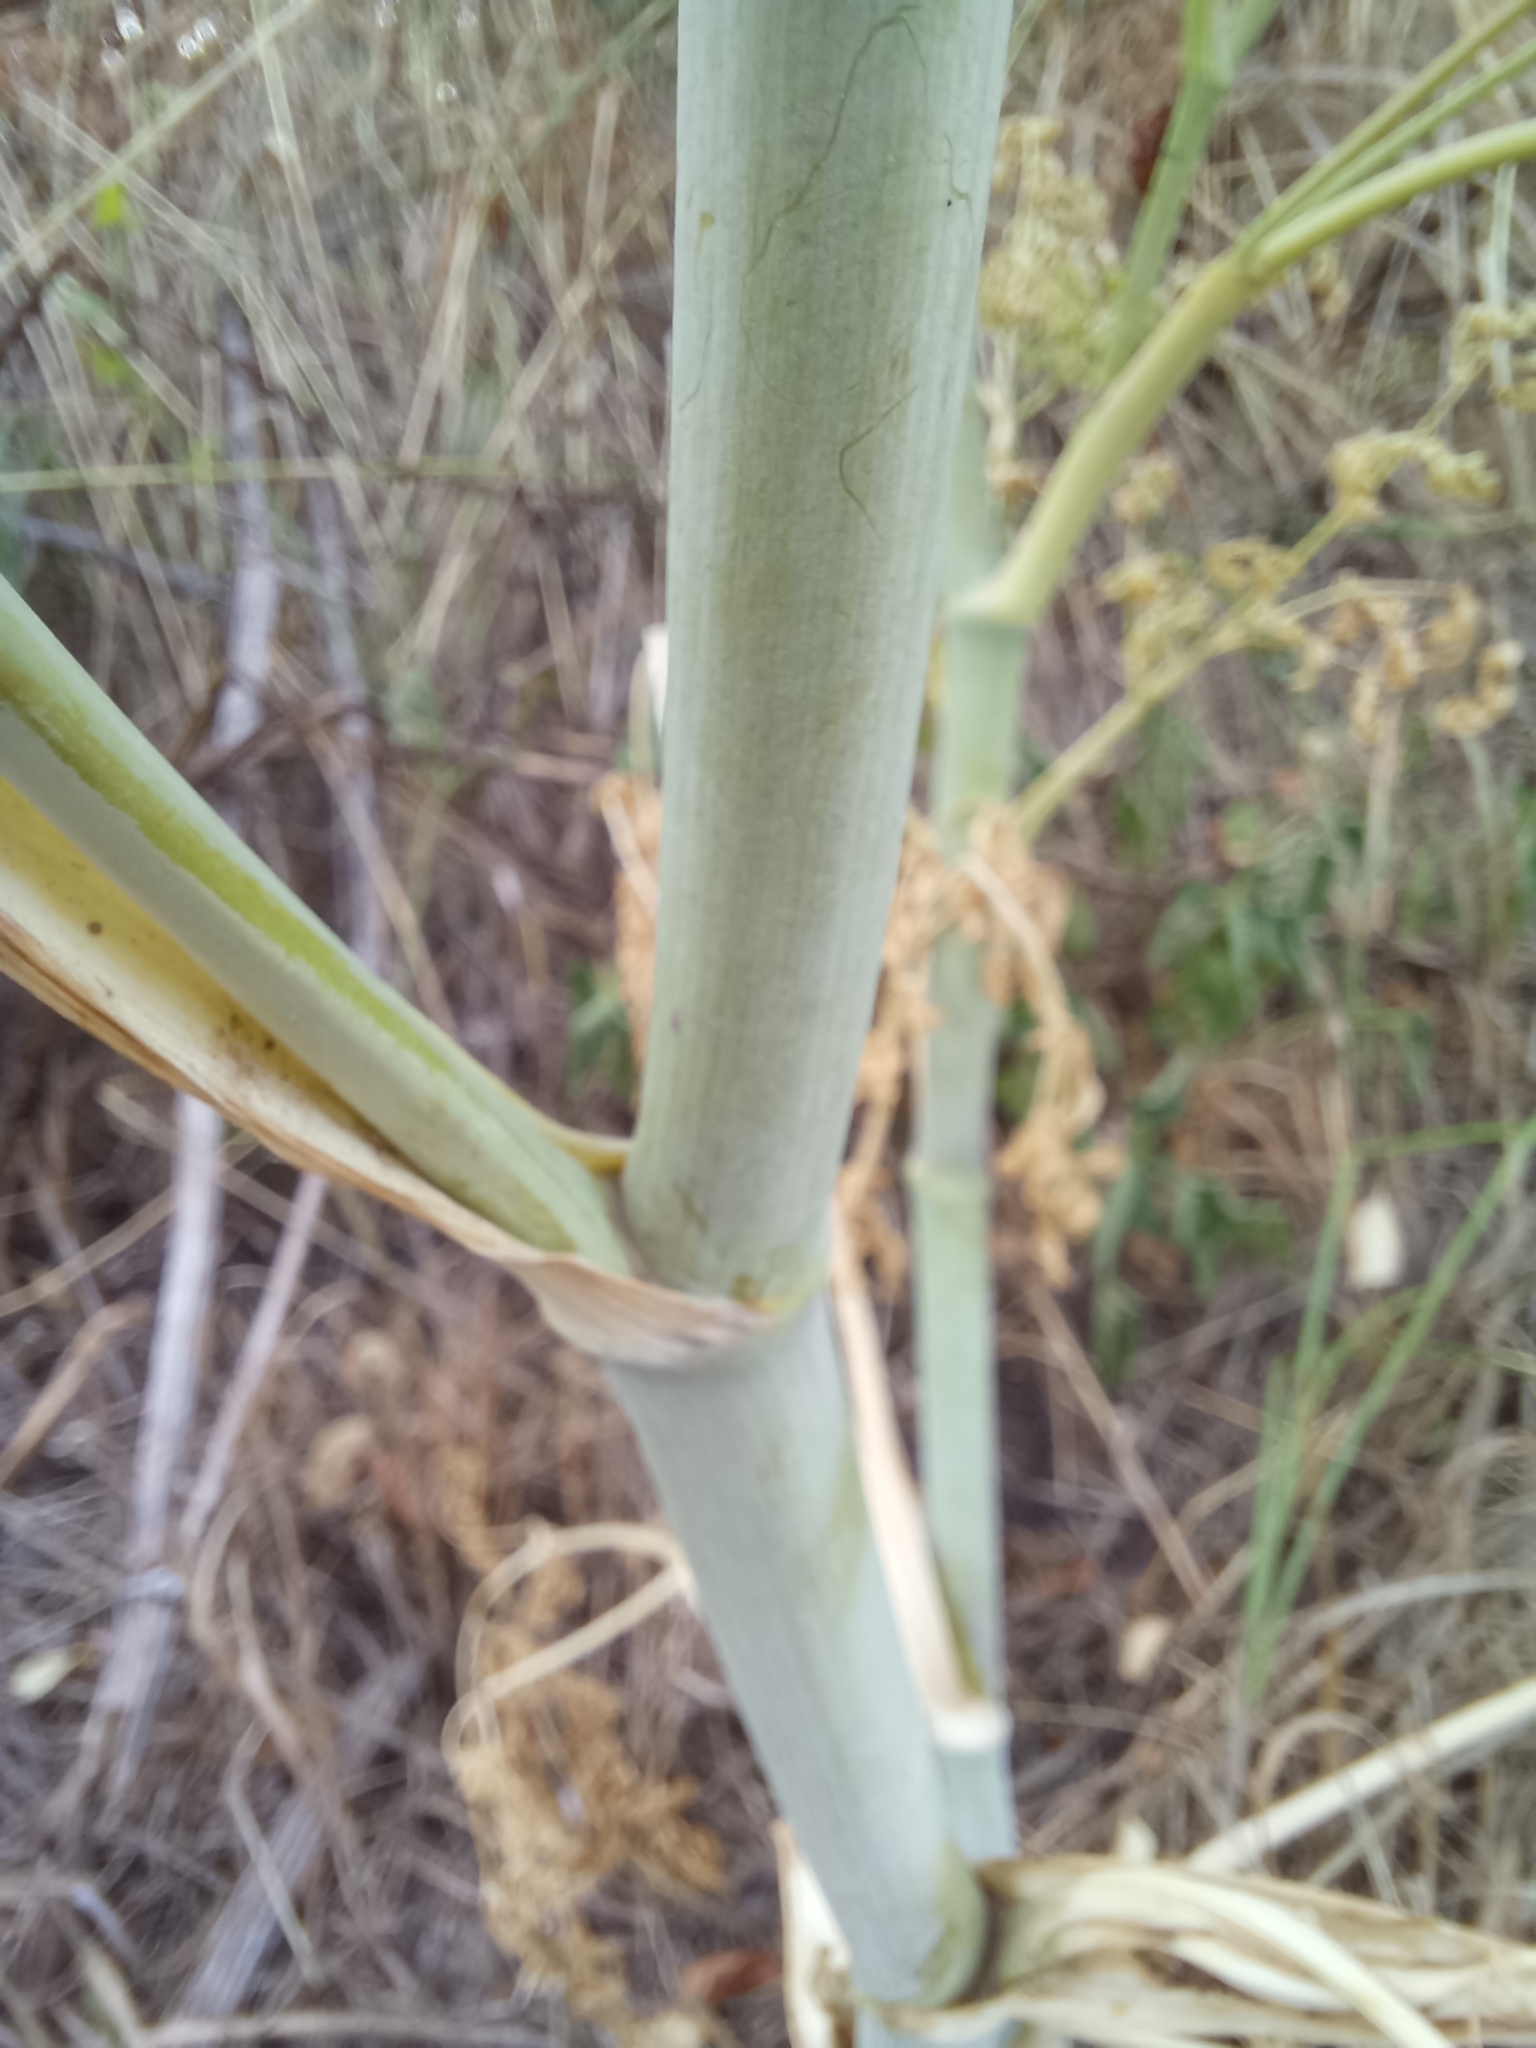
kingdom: Plantae
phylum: Tracheophyta
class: Magnoliopsida
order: Apiales
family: Apiaceae
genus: Conium
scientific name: Conium maculatum
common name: Hemlock
